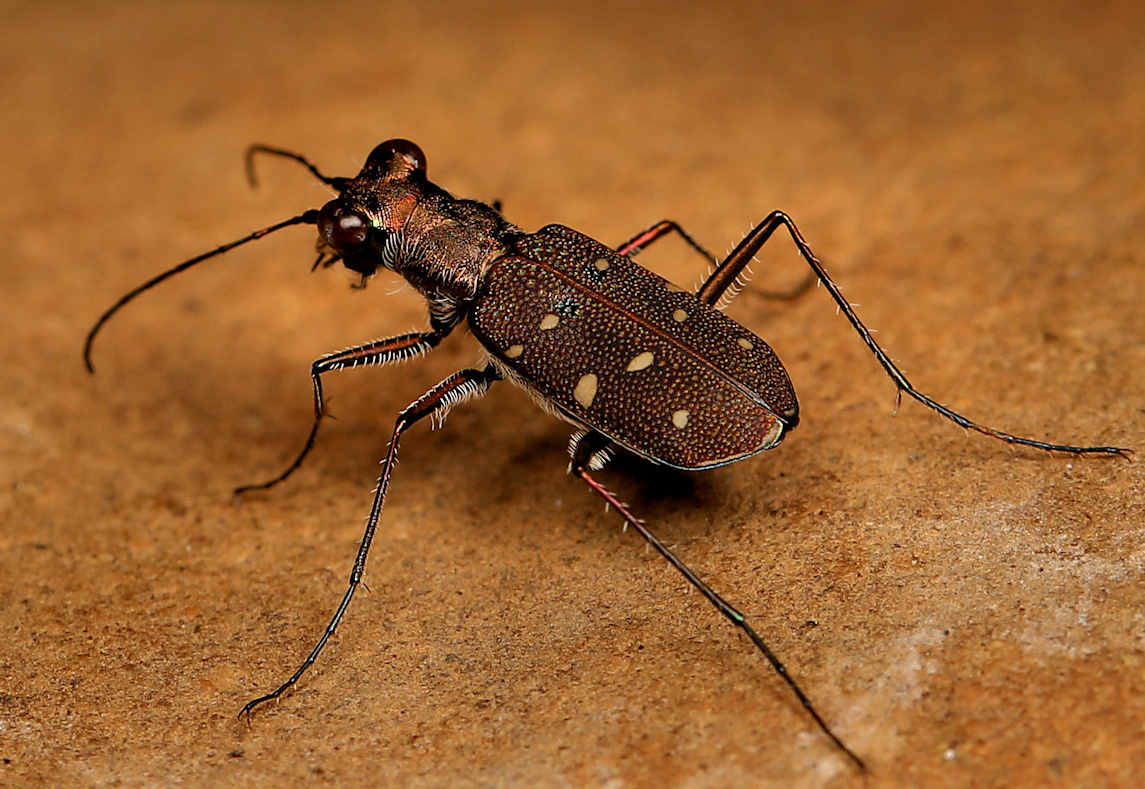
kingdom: Animalia
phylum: Arthropoda
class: Insecta
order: Coleoptera
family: Carabidae
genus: Cylindera
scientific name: Cylindera disjuncta
